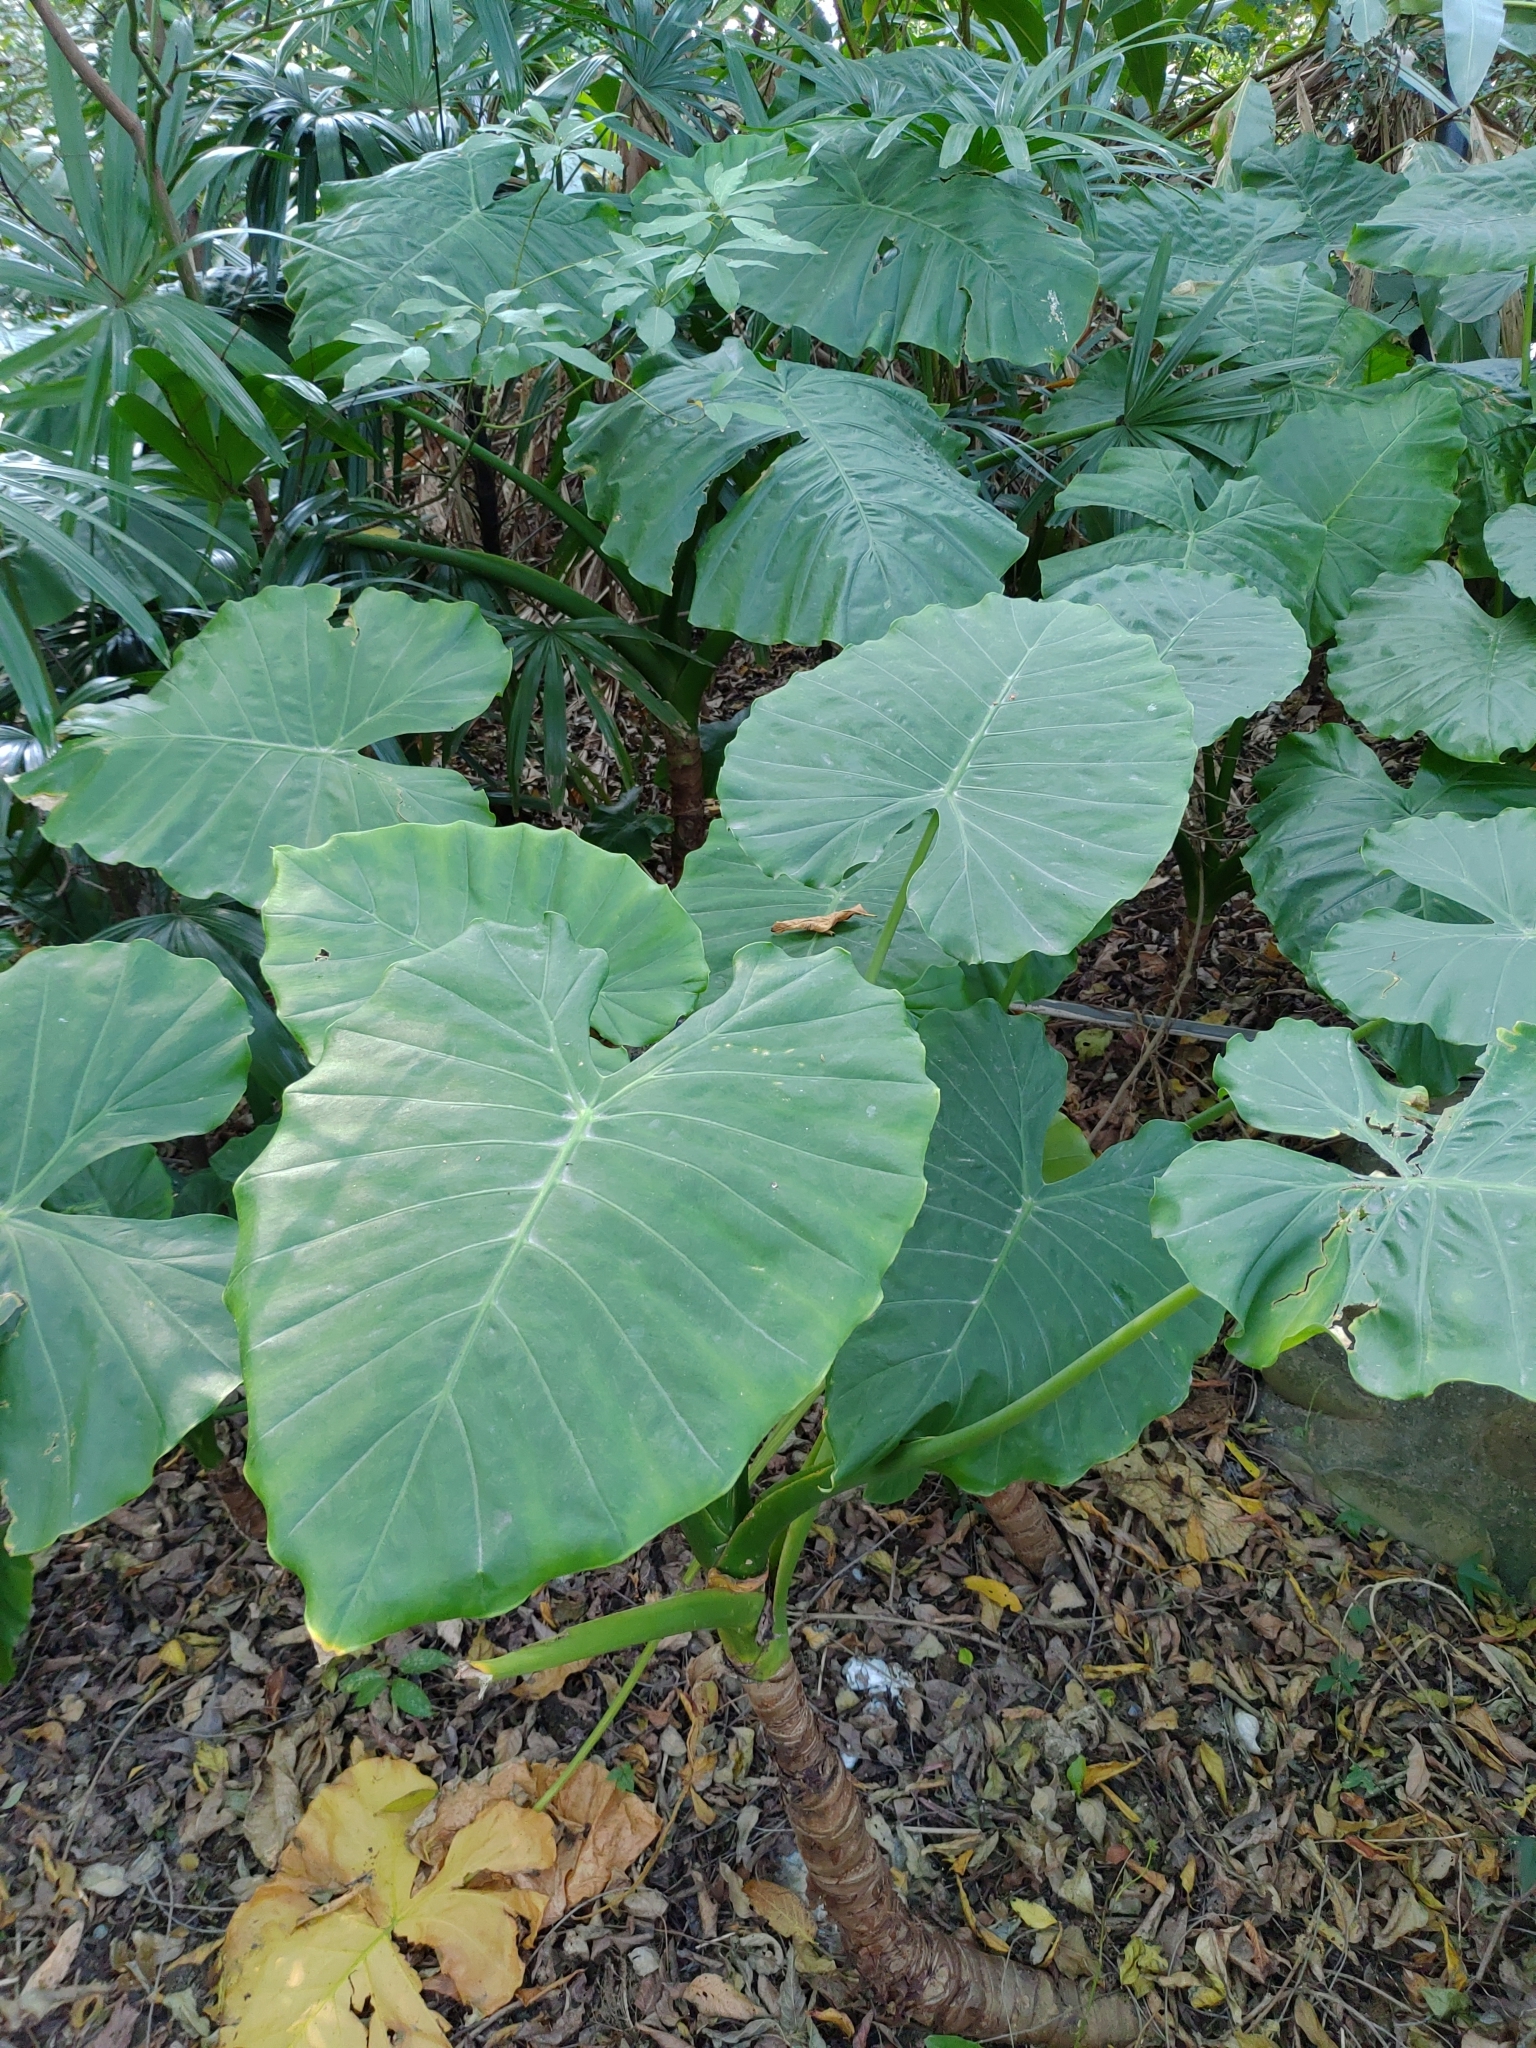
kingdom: Plantae
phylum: Tracheophyta
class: Liliopsida
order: Alismatales
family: Araceae
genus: Alocasia
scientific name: Alocasia odora
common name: Asian taro
